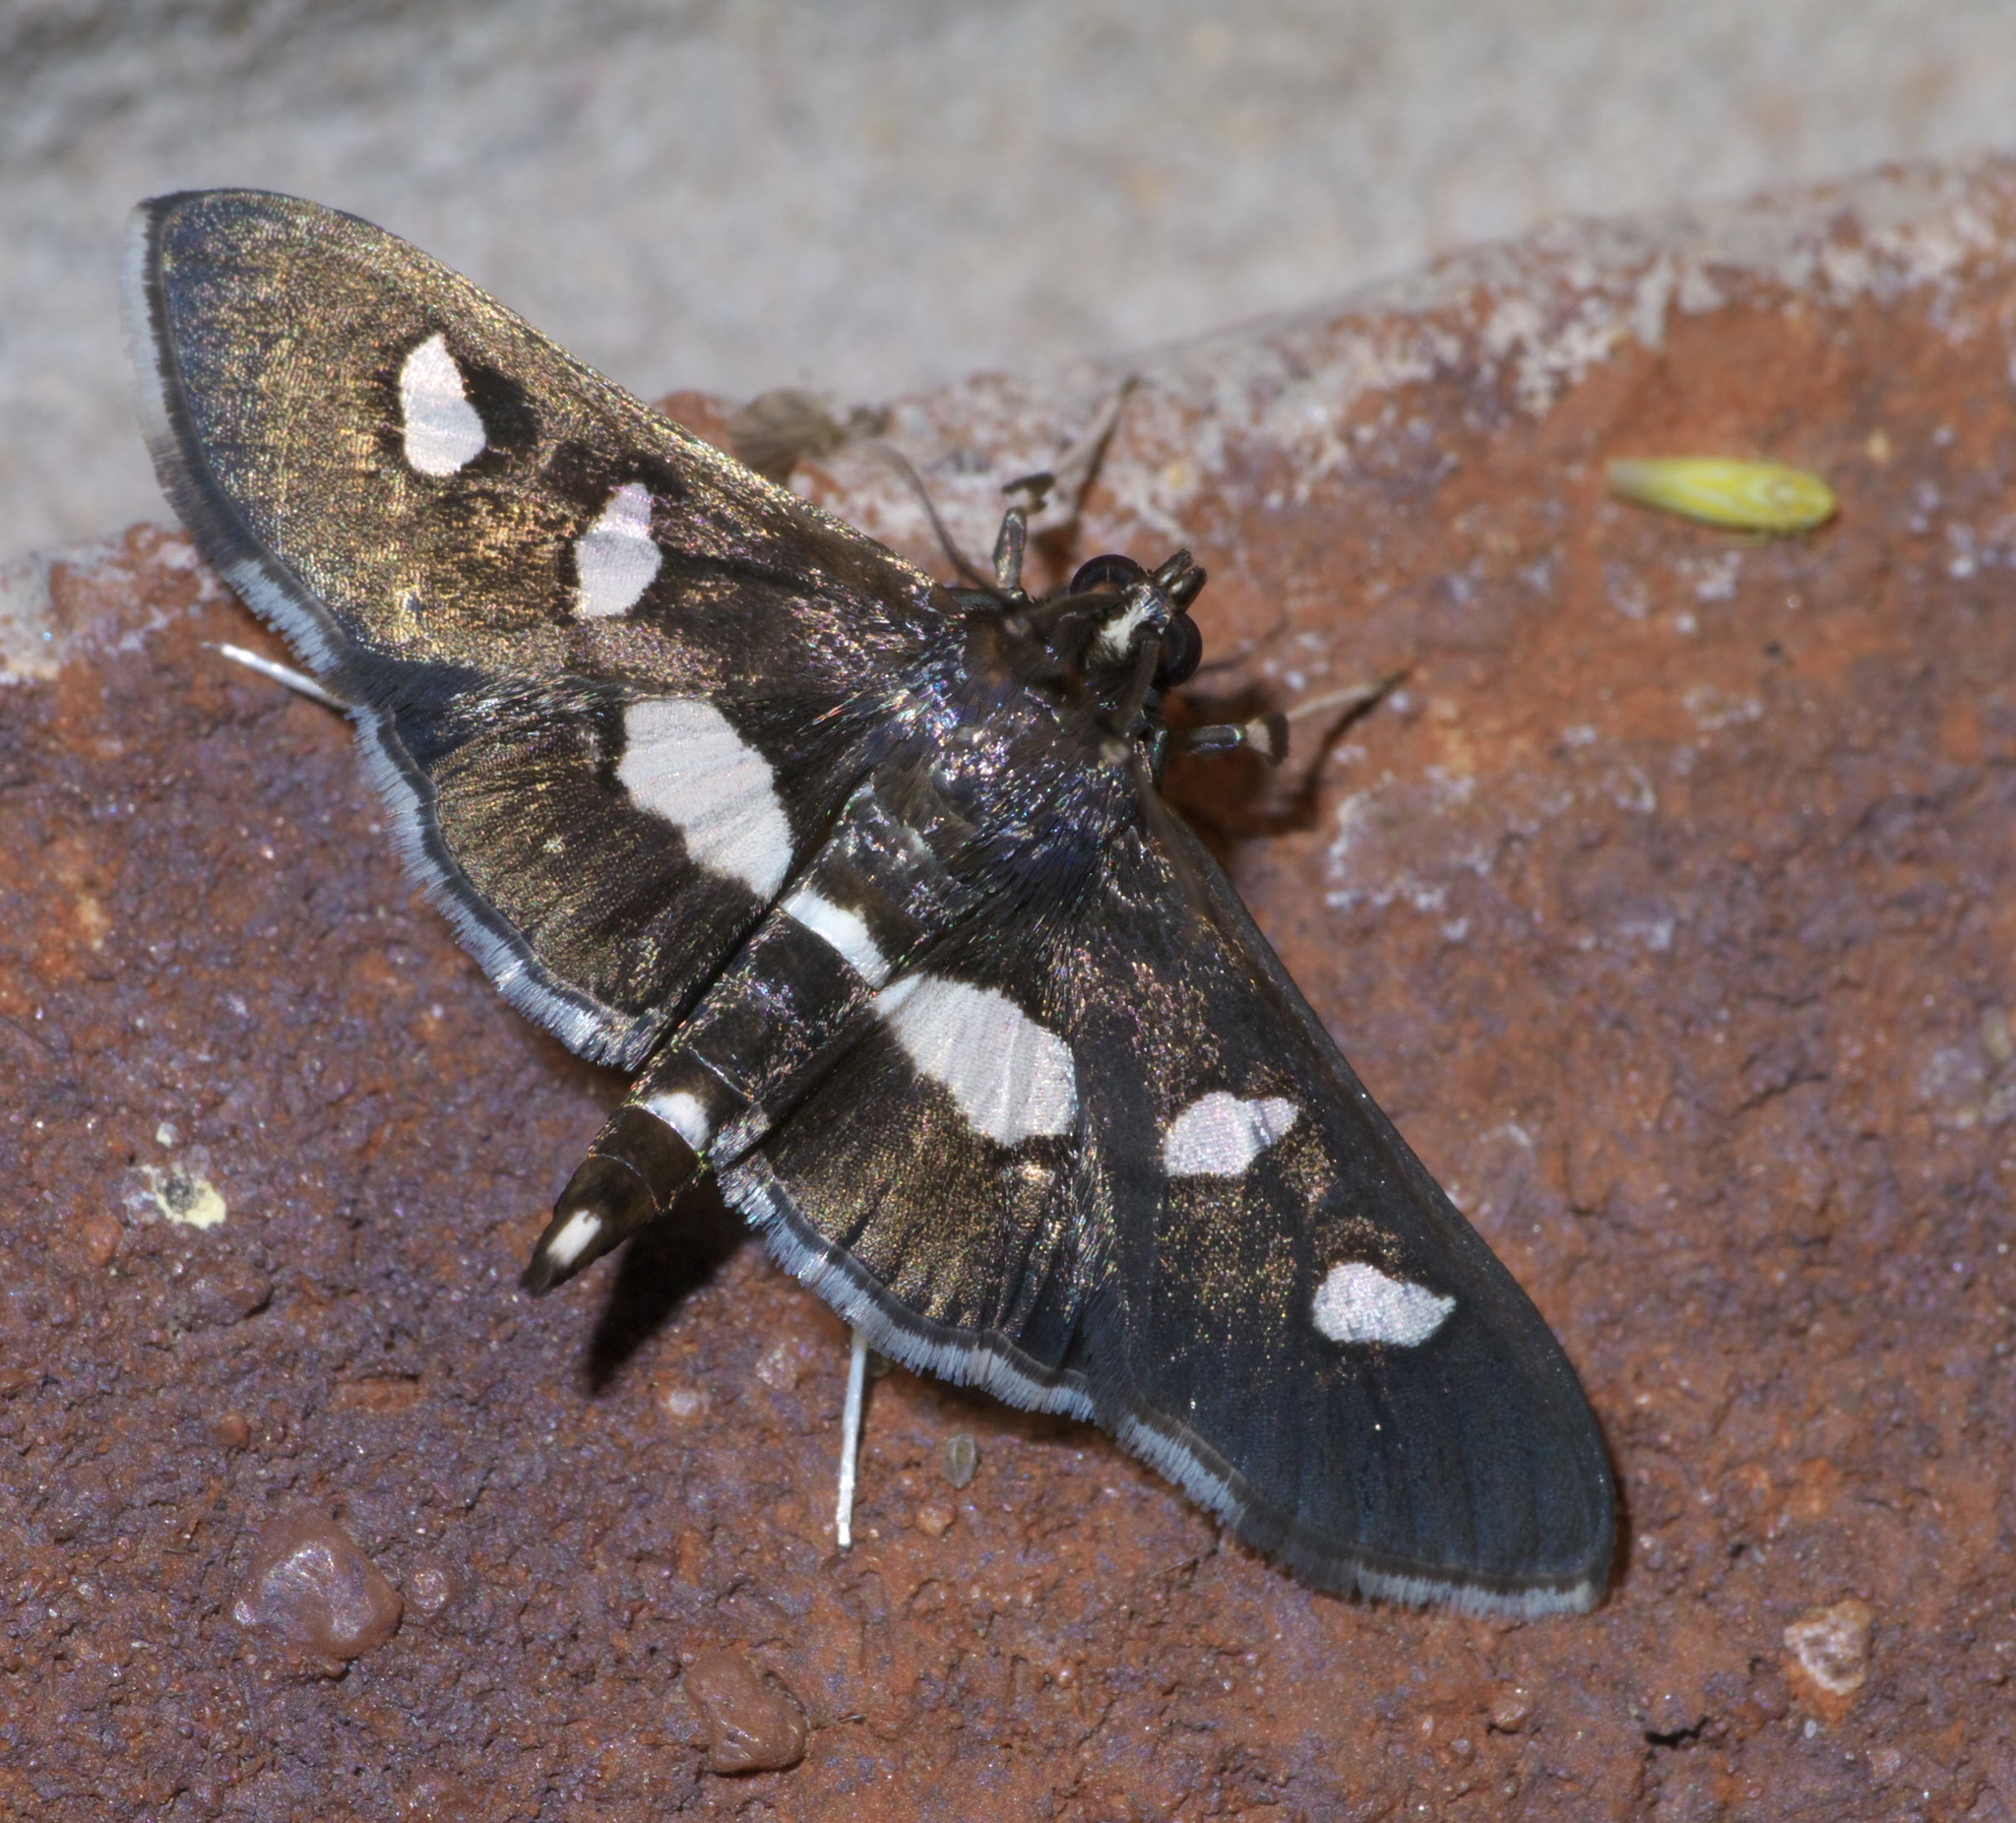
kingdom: Animalia
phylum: Arthropoda
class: Insecta
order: Lepidoptera
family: Crambidae
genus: Desmia
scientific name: Desmia
